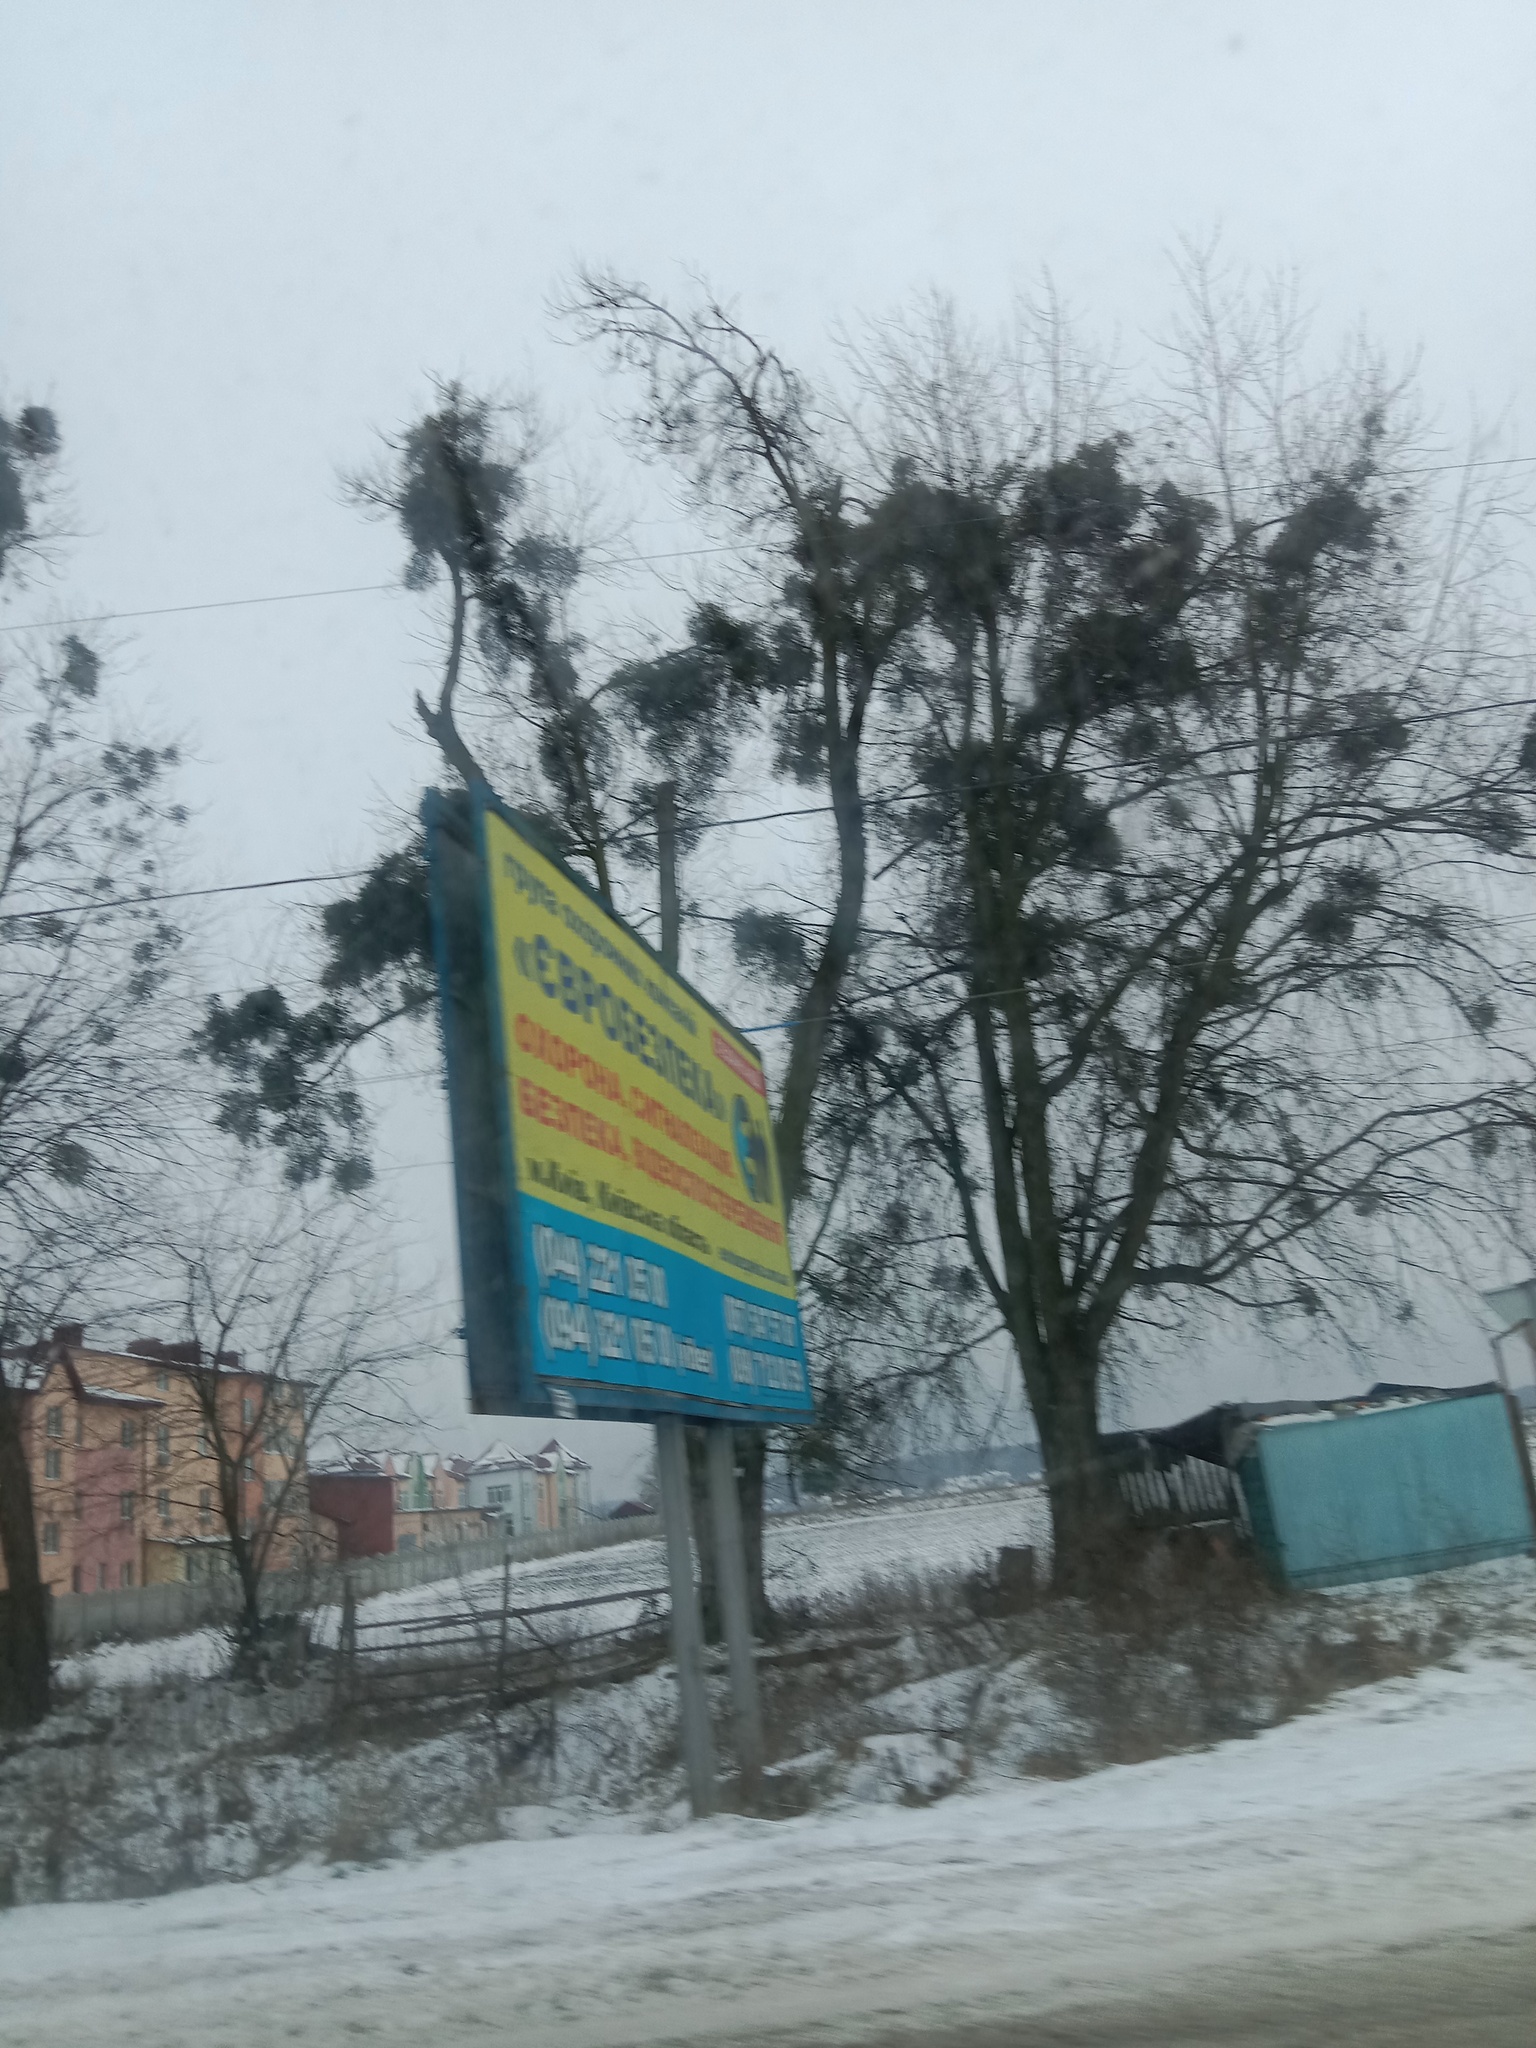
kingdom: Plantae
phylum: Tracheophyta
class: Magnoliopsida
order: Santalales
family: Viscaceae
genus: Viscum
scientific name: Viscum album
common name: Mistletoe
